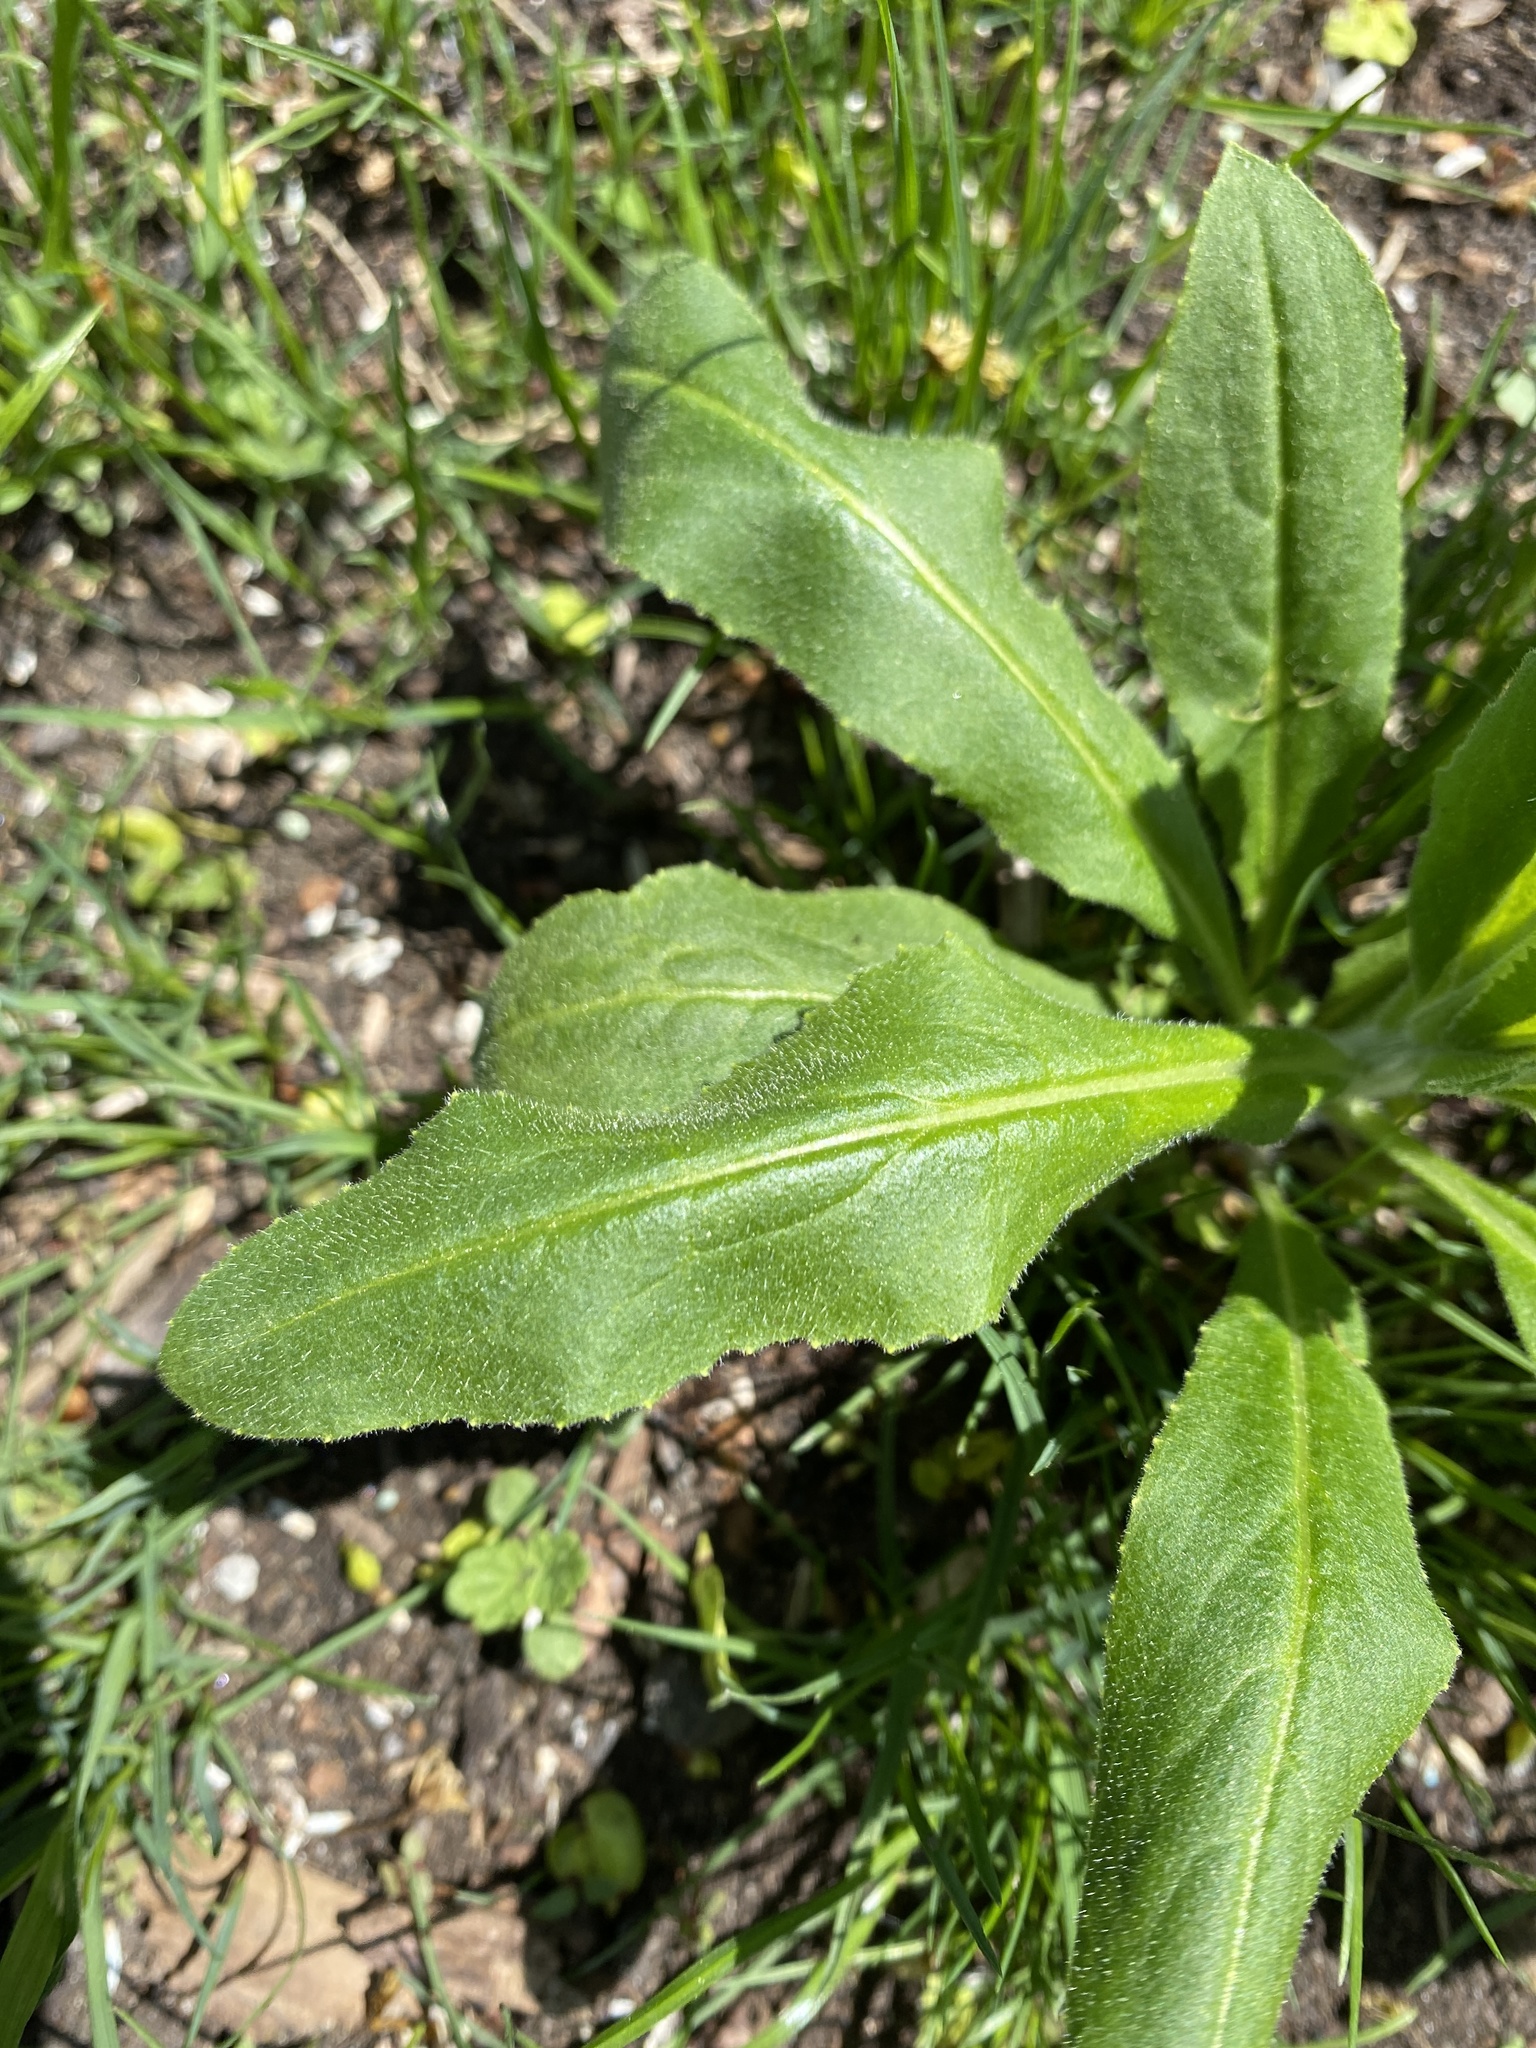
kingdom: Plantae
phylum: Tracheophyta
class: Magnoliopsida
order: Brassicales
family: Brassicaceae
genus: Hesperis
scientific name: Hesperis matronalis
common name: Dame's-violet
